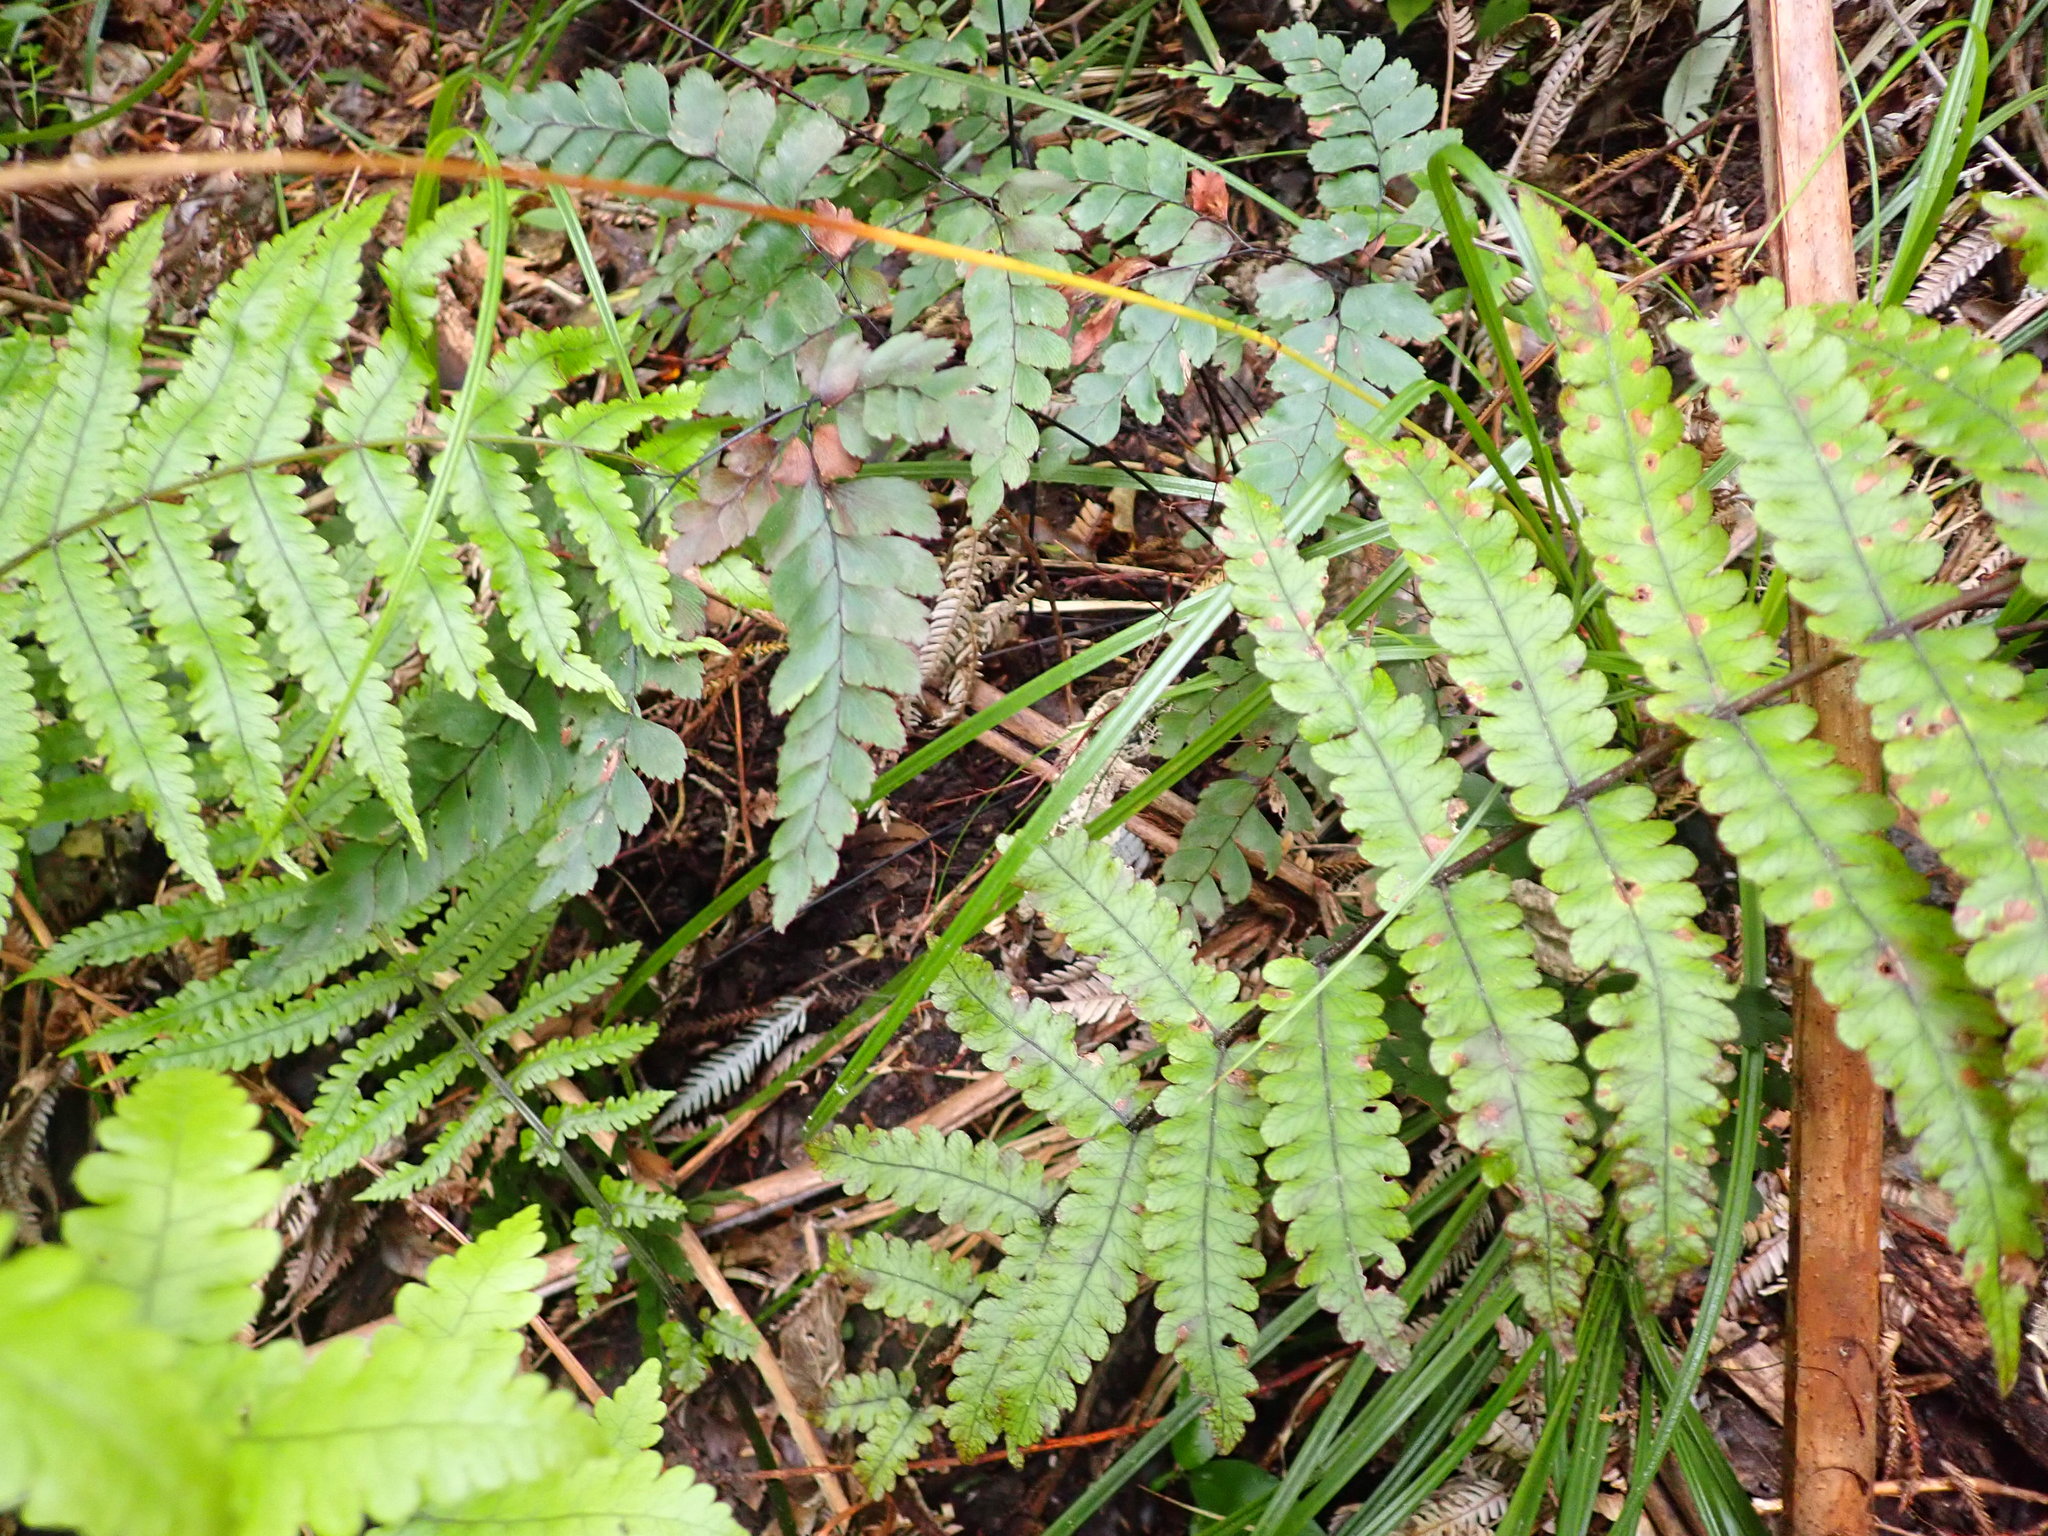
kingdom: Plantae
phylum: Tracheophyta
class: Magnoliopsida
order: Asterales
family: Rousseaceae
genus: Carpodetus
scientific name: Carpodetus serratus
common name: White mapau
